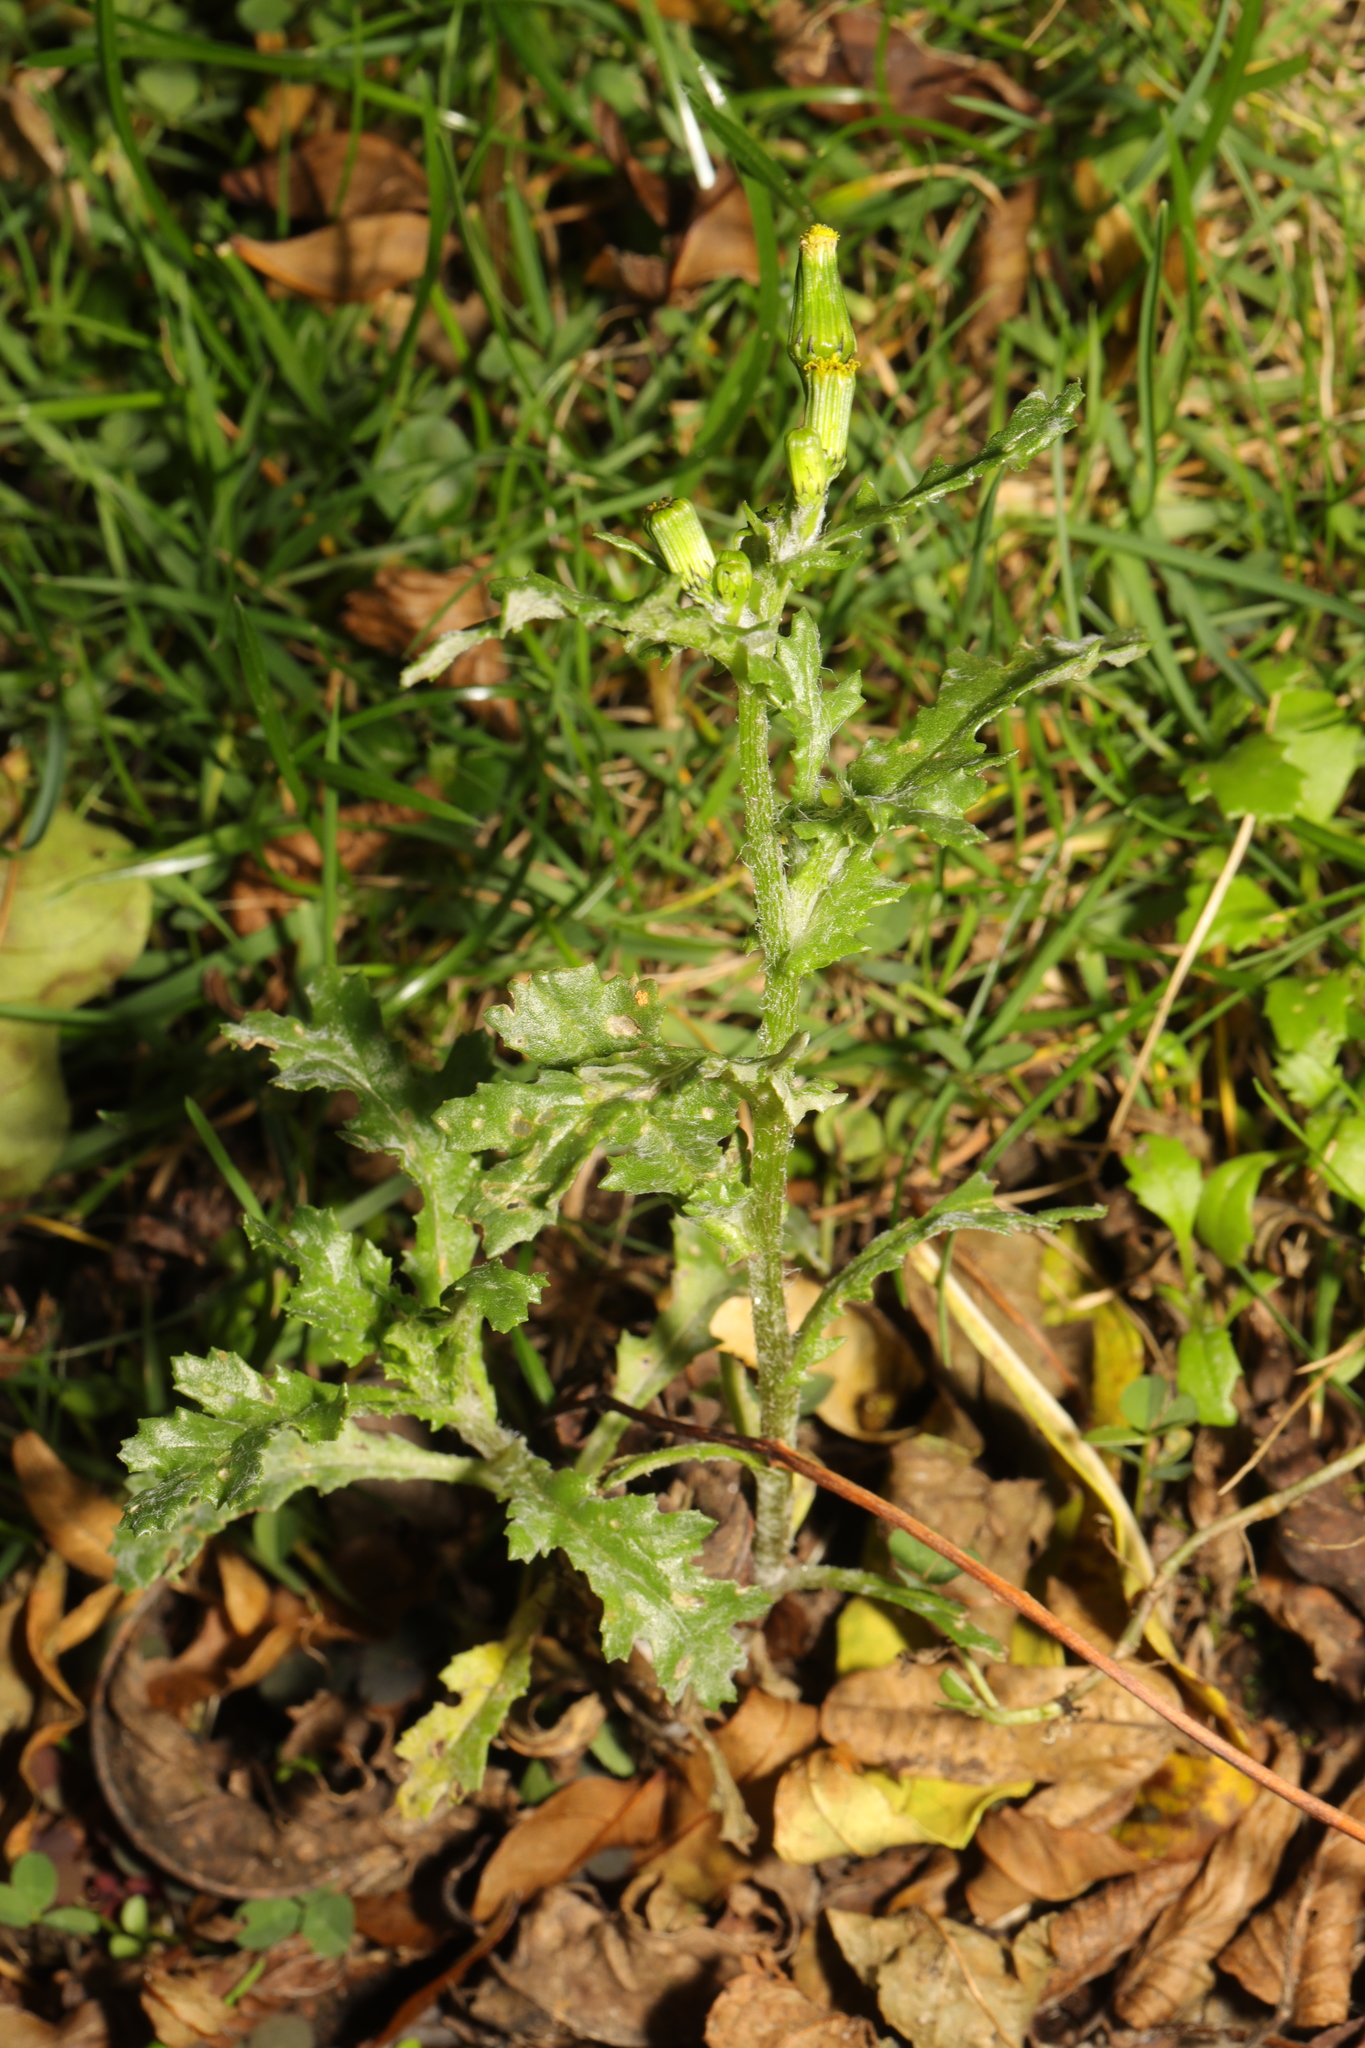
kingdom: Plantae
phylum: Tracheophyta
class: Magnoliopsida
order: Asterales
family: Asteraceae
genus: Senecio
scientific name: Senecio vulgaris
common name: Old-man-in-the-spring
